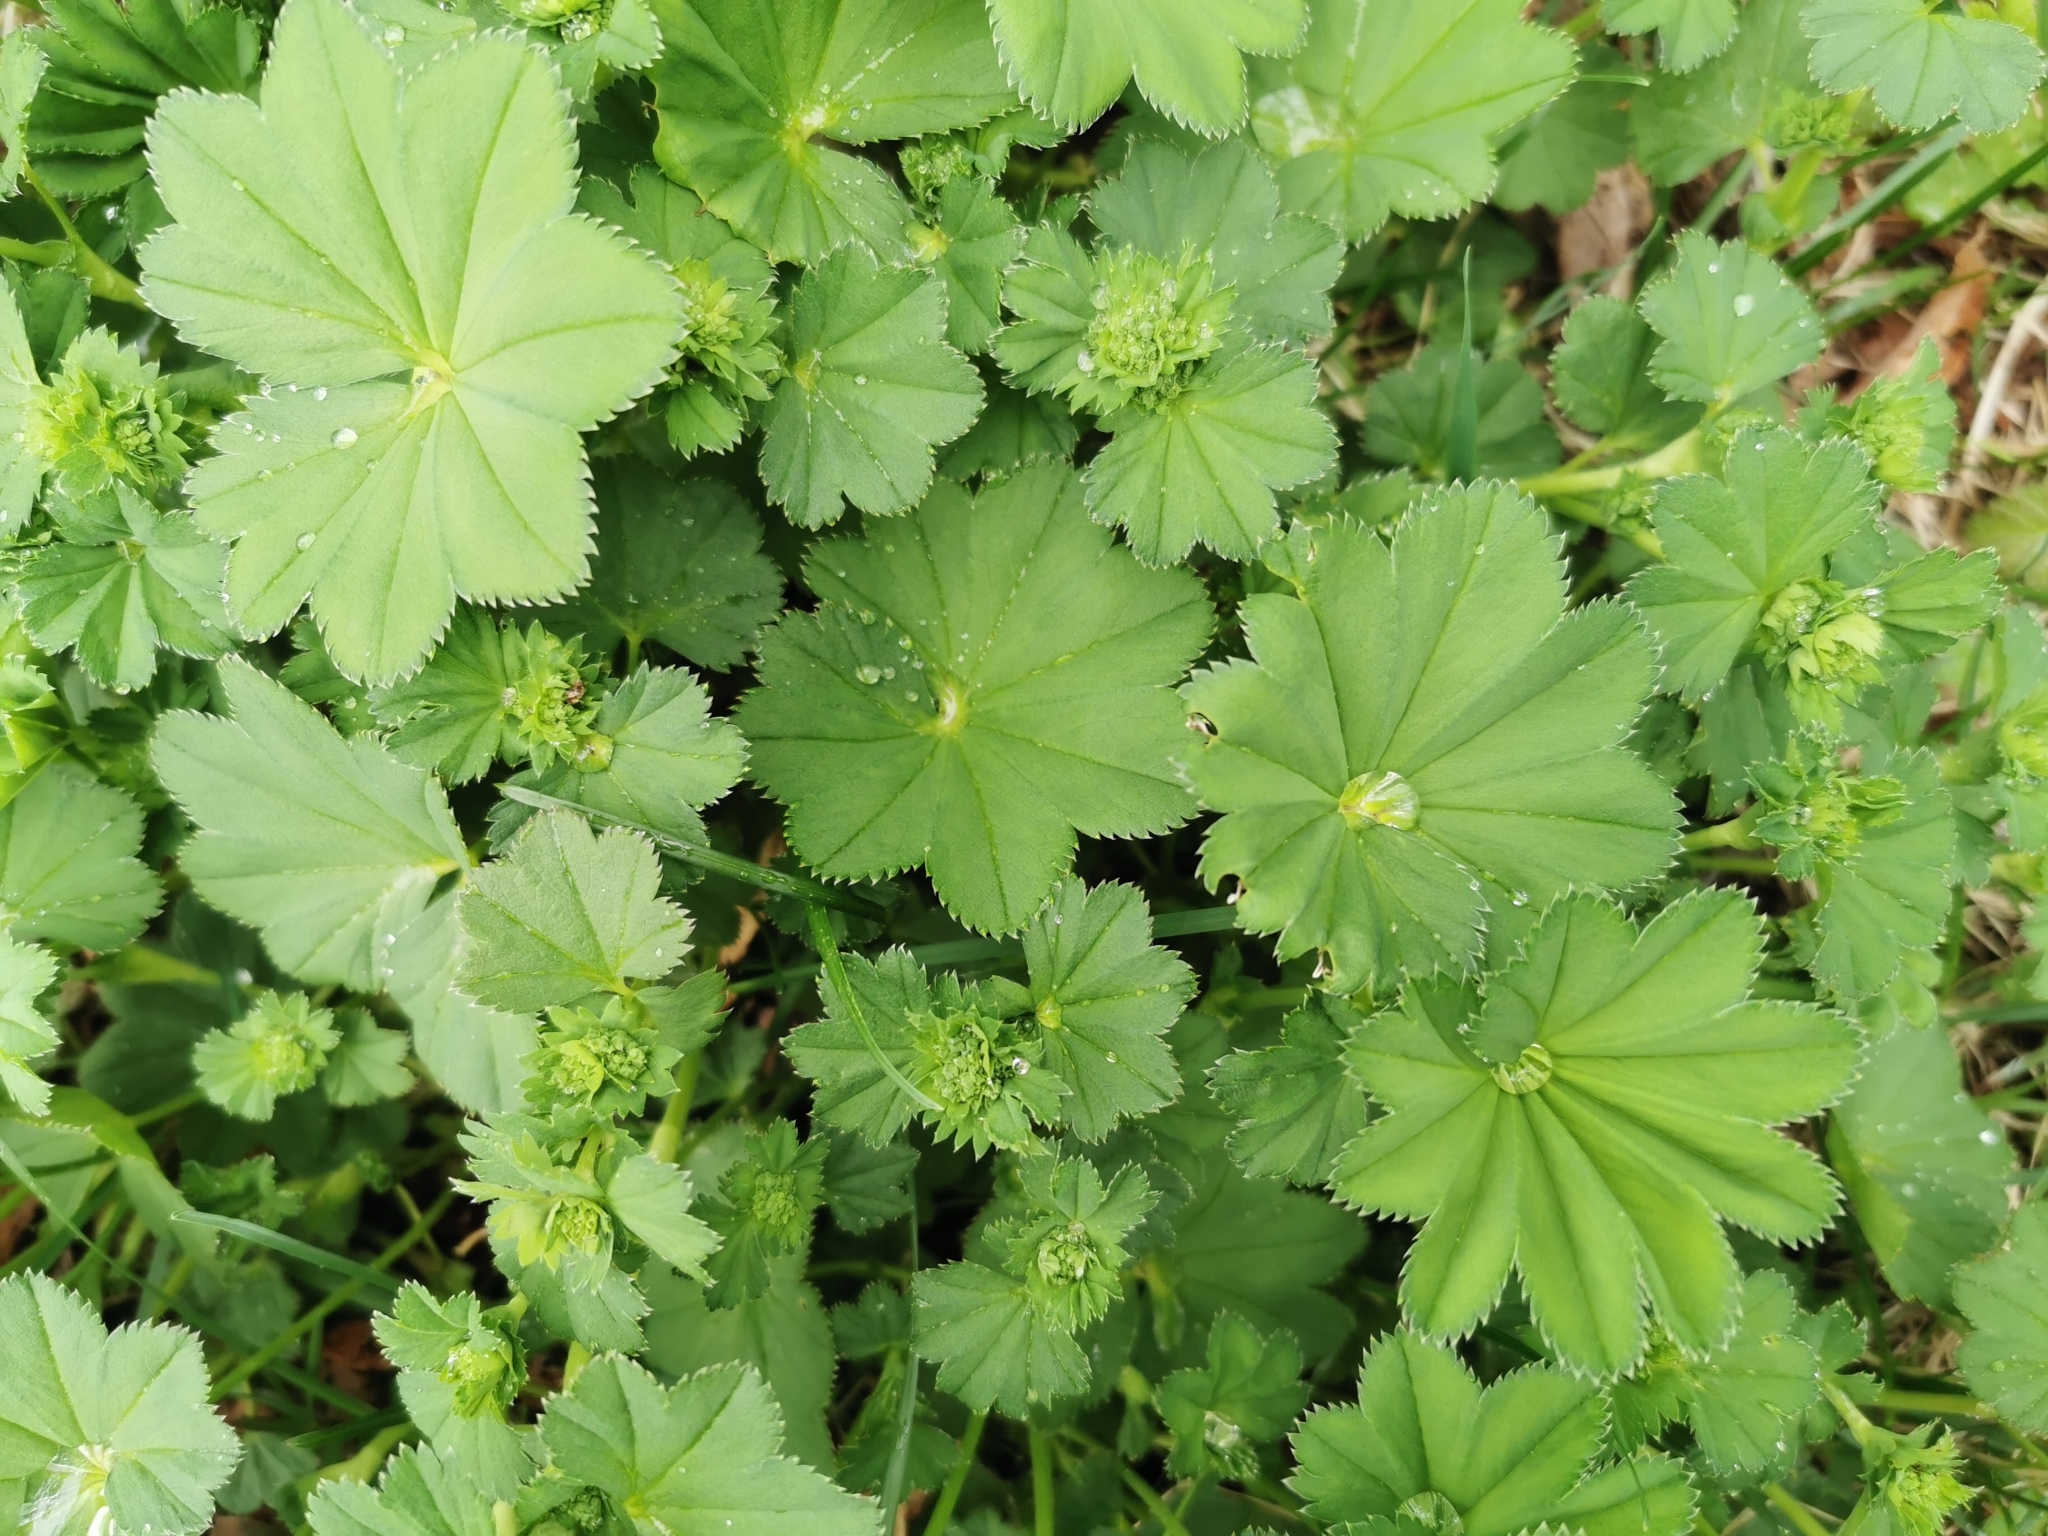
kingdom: Plantae
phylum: Tracheophyta
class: Magnoliopsida
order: Rosales
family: Rosaceae
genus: Alchemilla
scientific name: Alchemilla subcrenata
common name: Broadtooth lady's mantle
